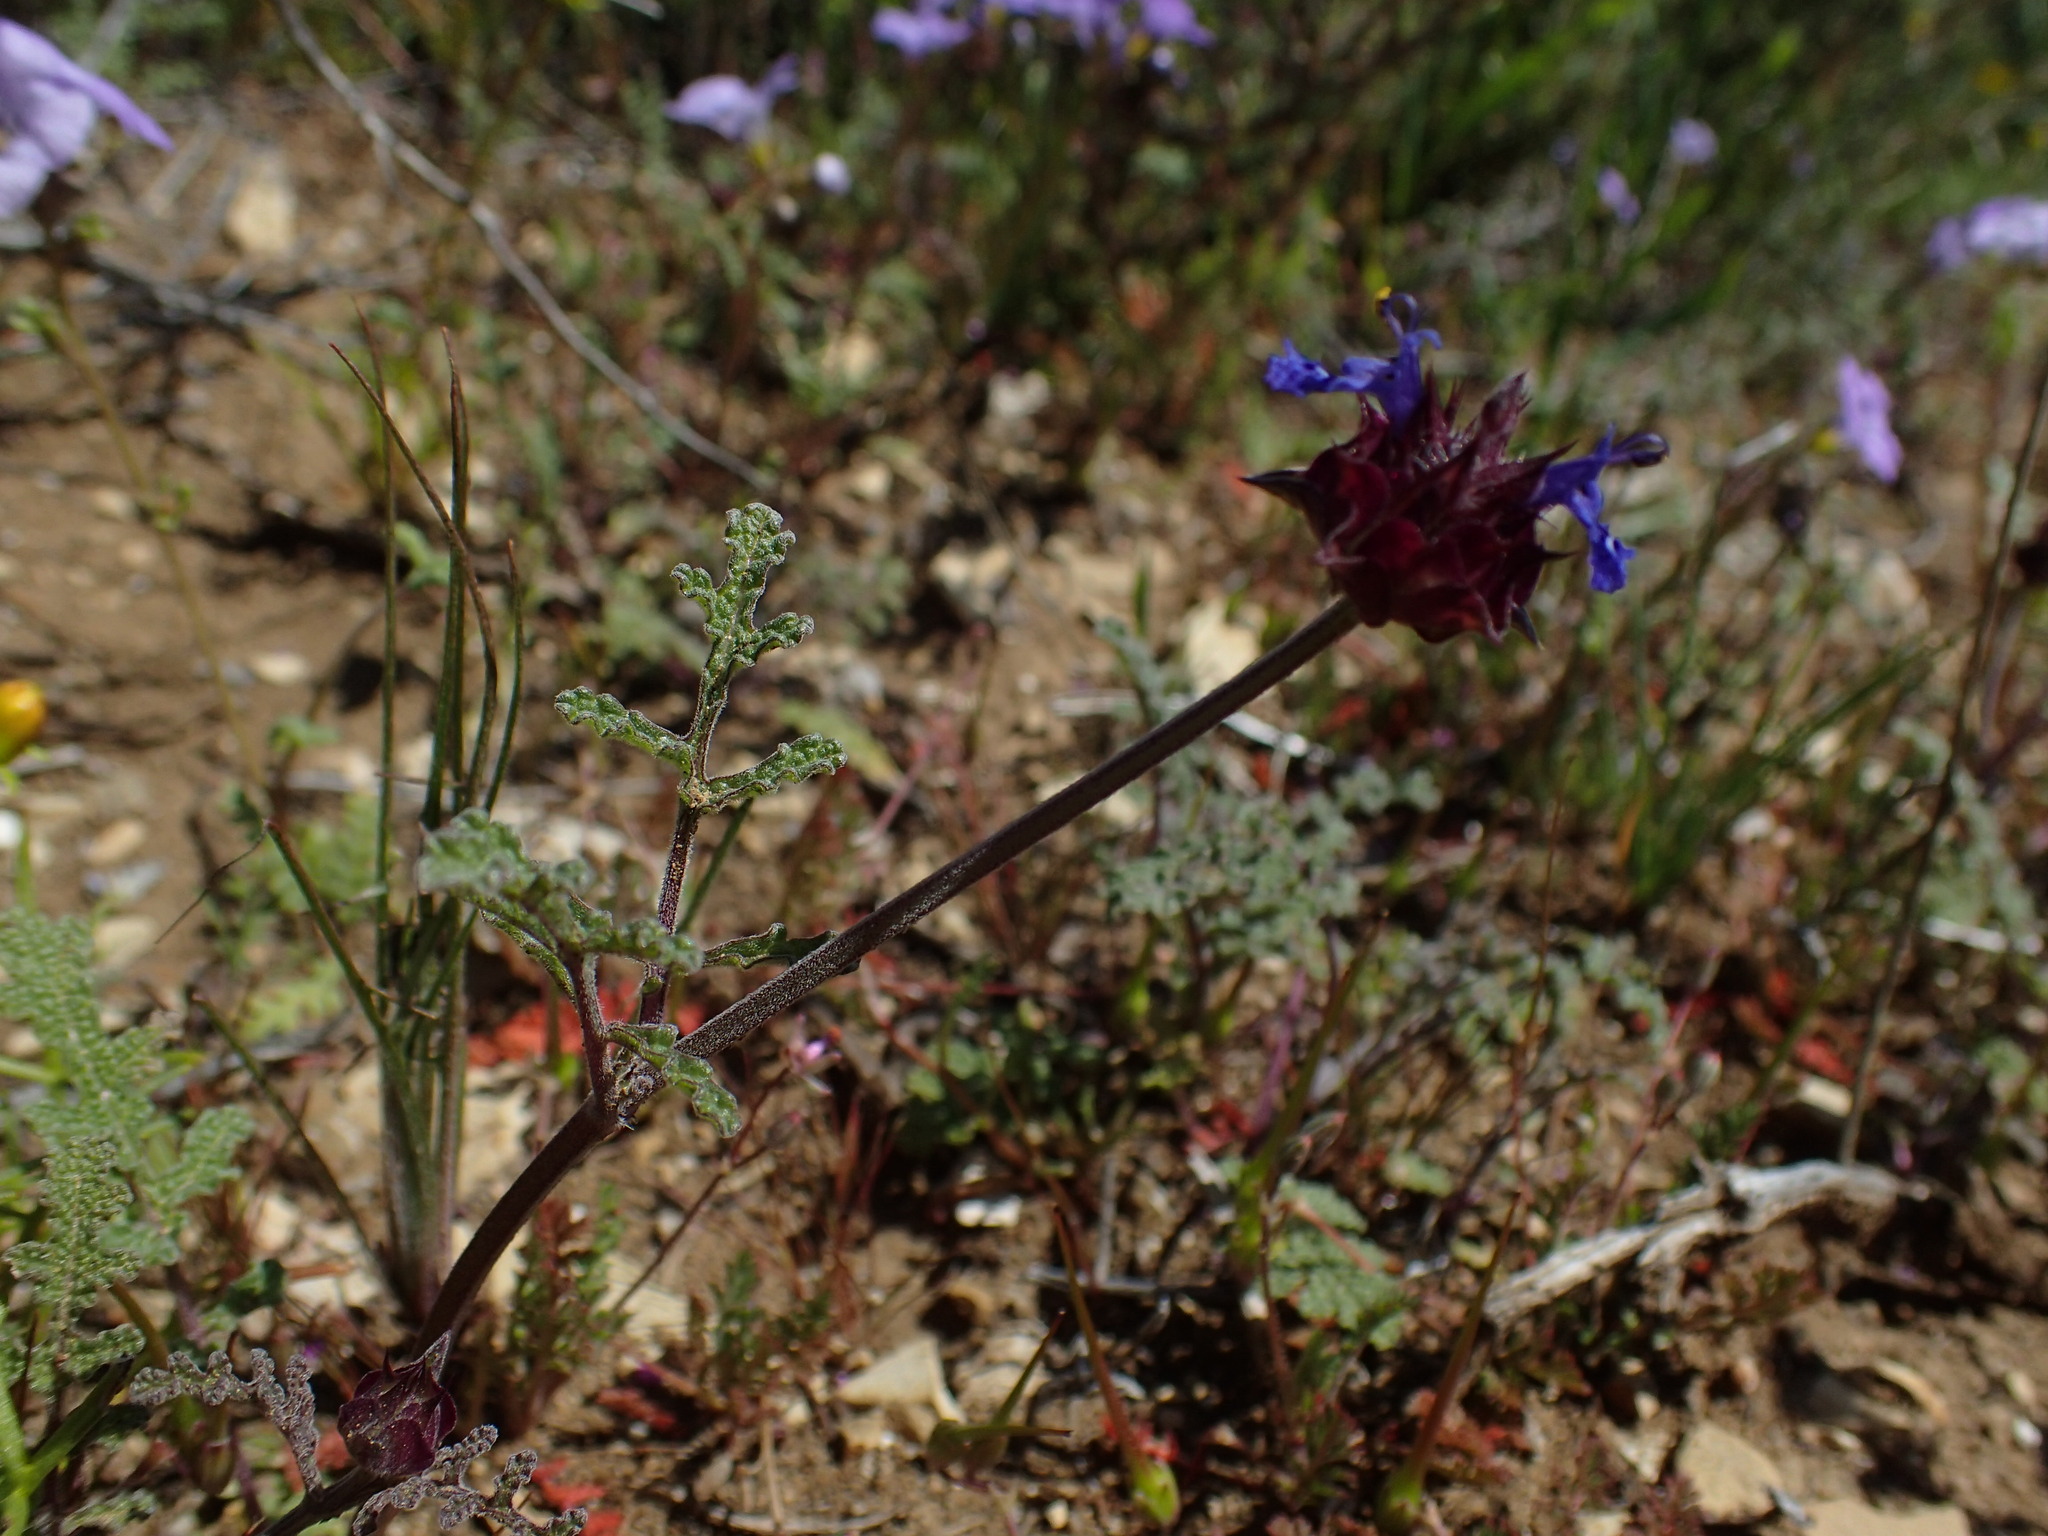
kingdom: Plantae
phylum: Tracheophyta
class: Magnoliopsida
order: Lamiales
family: Lamiaceae
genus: Salvia
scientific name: Salvia columbariae
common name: Chia
